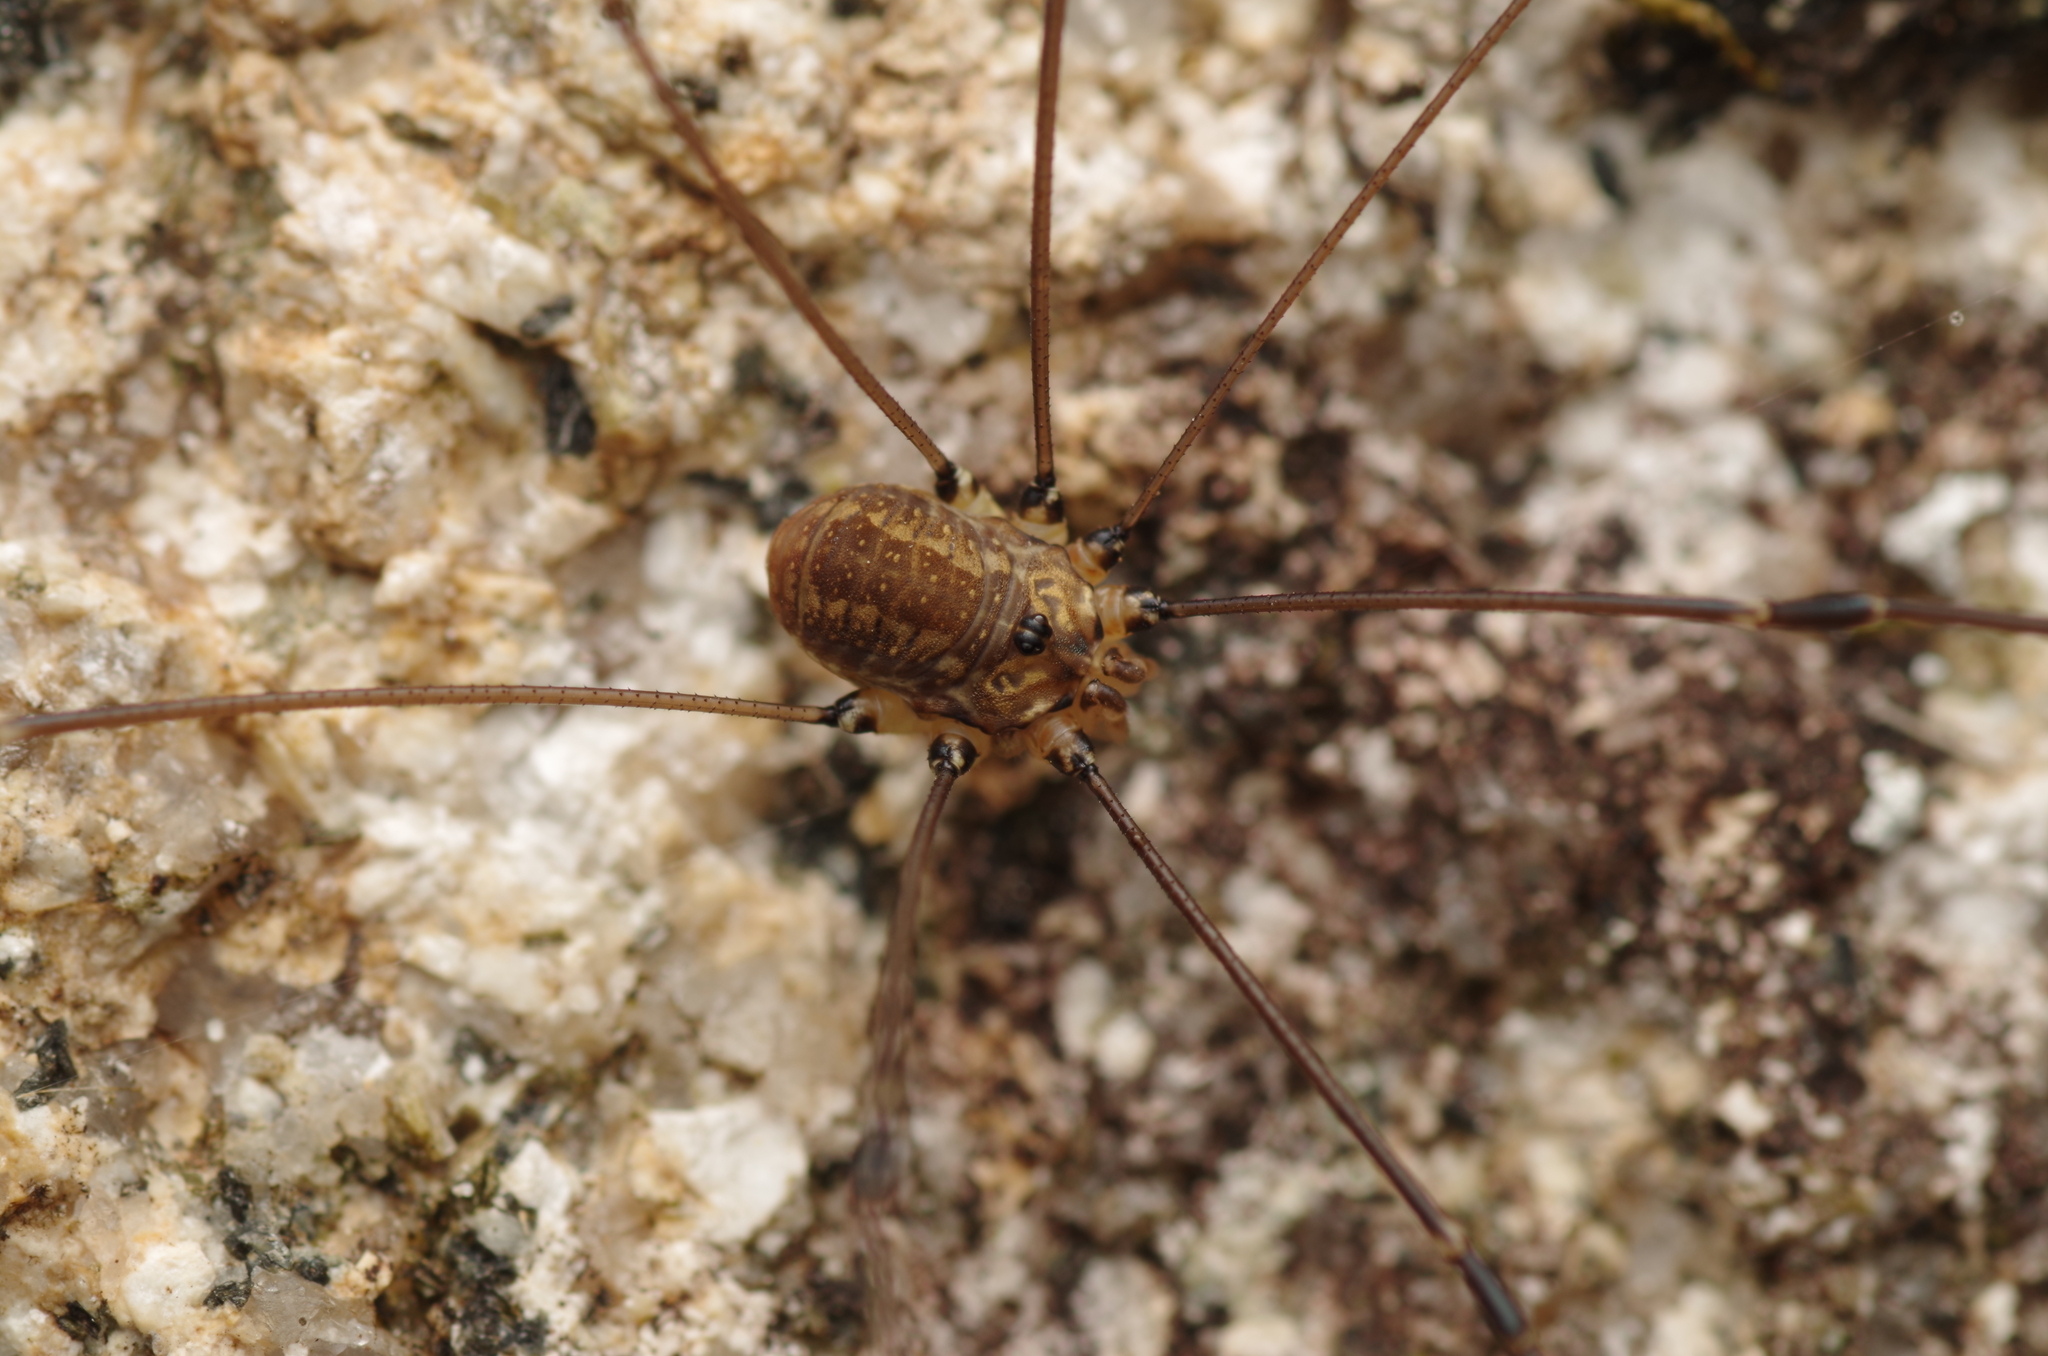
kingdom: Animalia
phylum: Arthropoda
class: Arachnida
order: Opiliones
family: Sclerosomatidae
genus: Leiobunum
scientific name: Leiobunum rotundum
